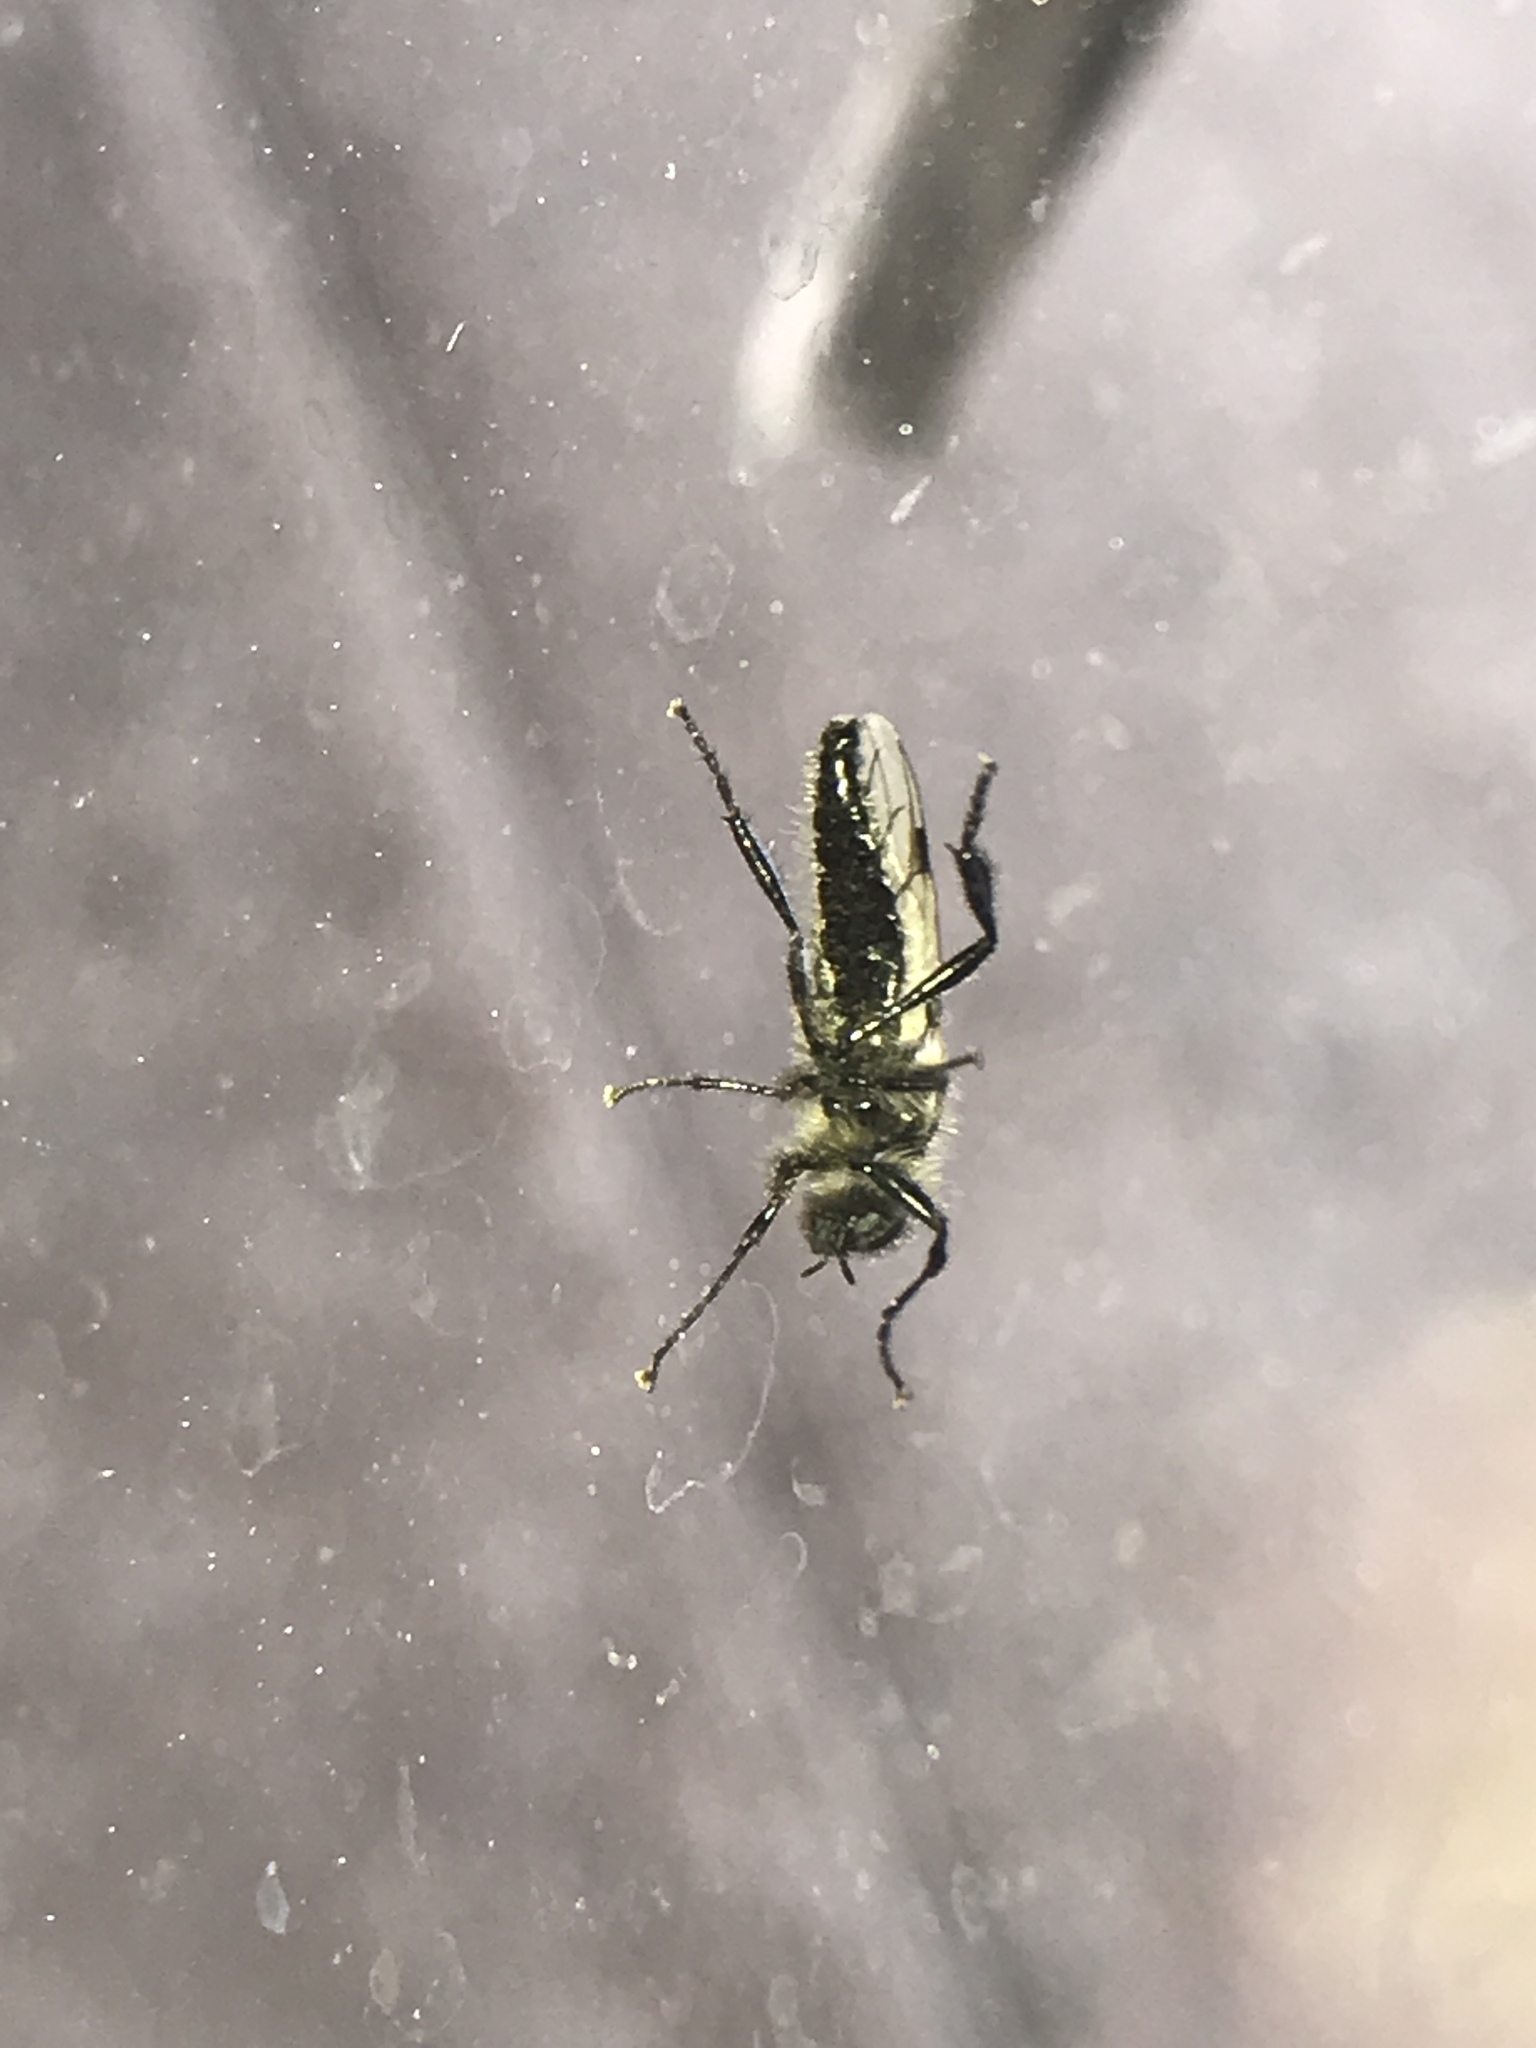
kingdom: Animalia
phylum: Arthropoda
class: Insecta
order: Diptera
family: Bibionidae
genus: Bibio
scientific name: Bibio albipennis
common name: White-winged march fly
